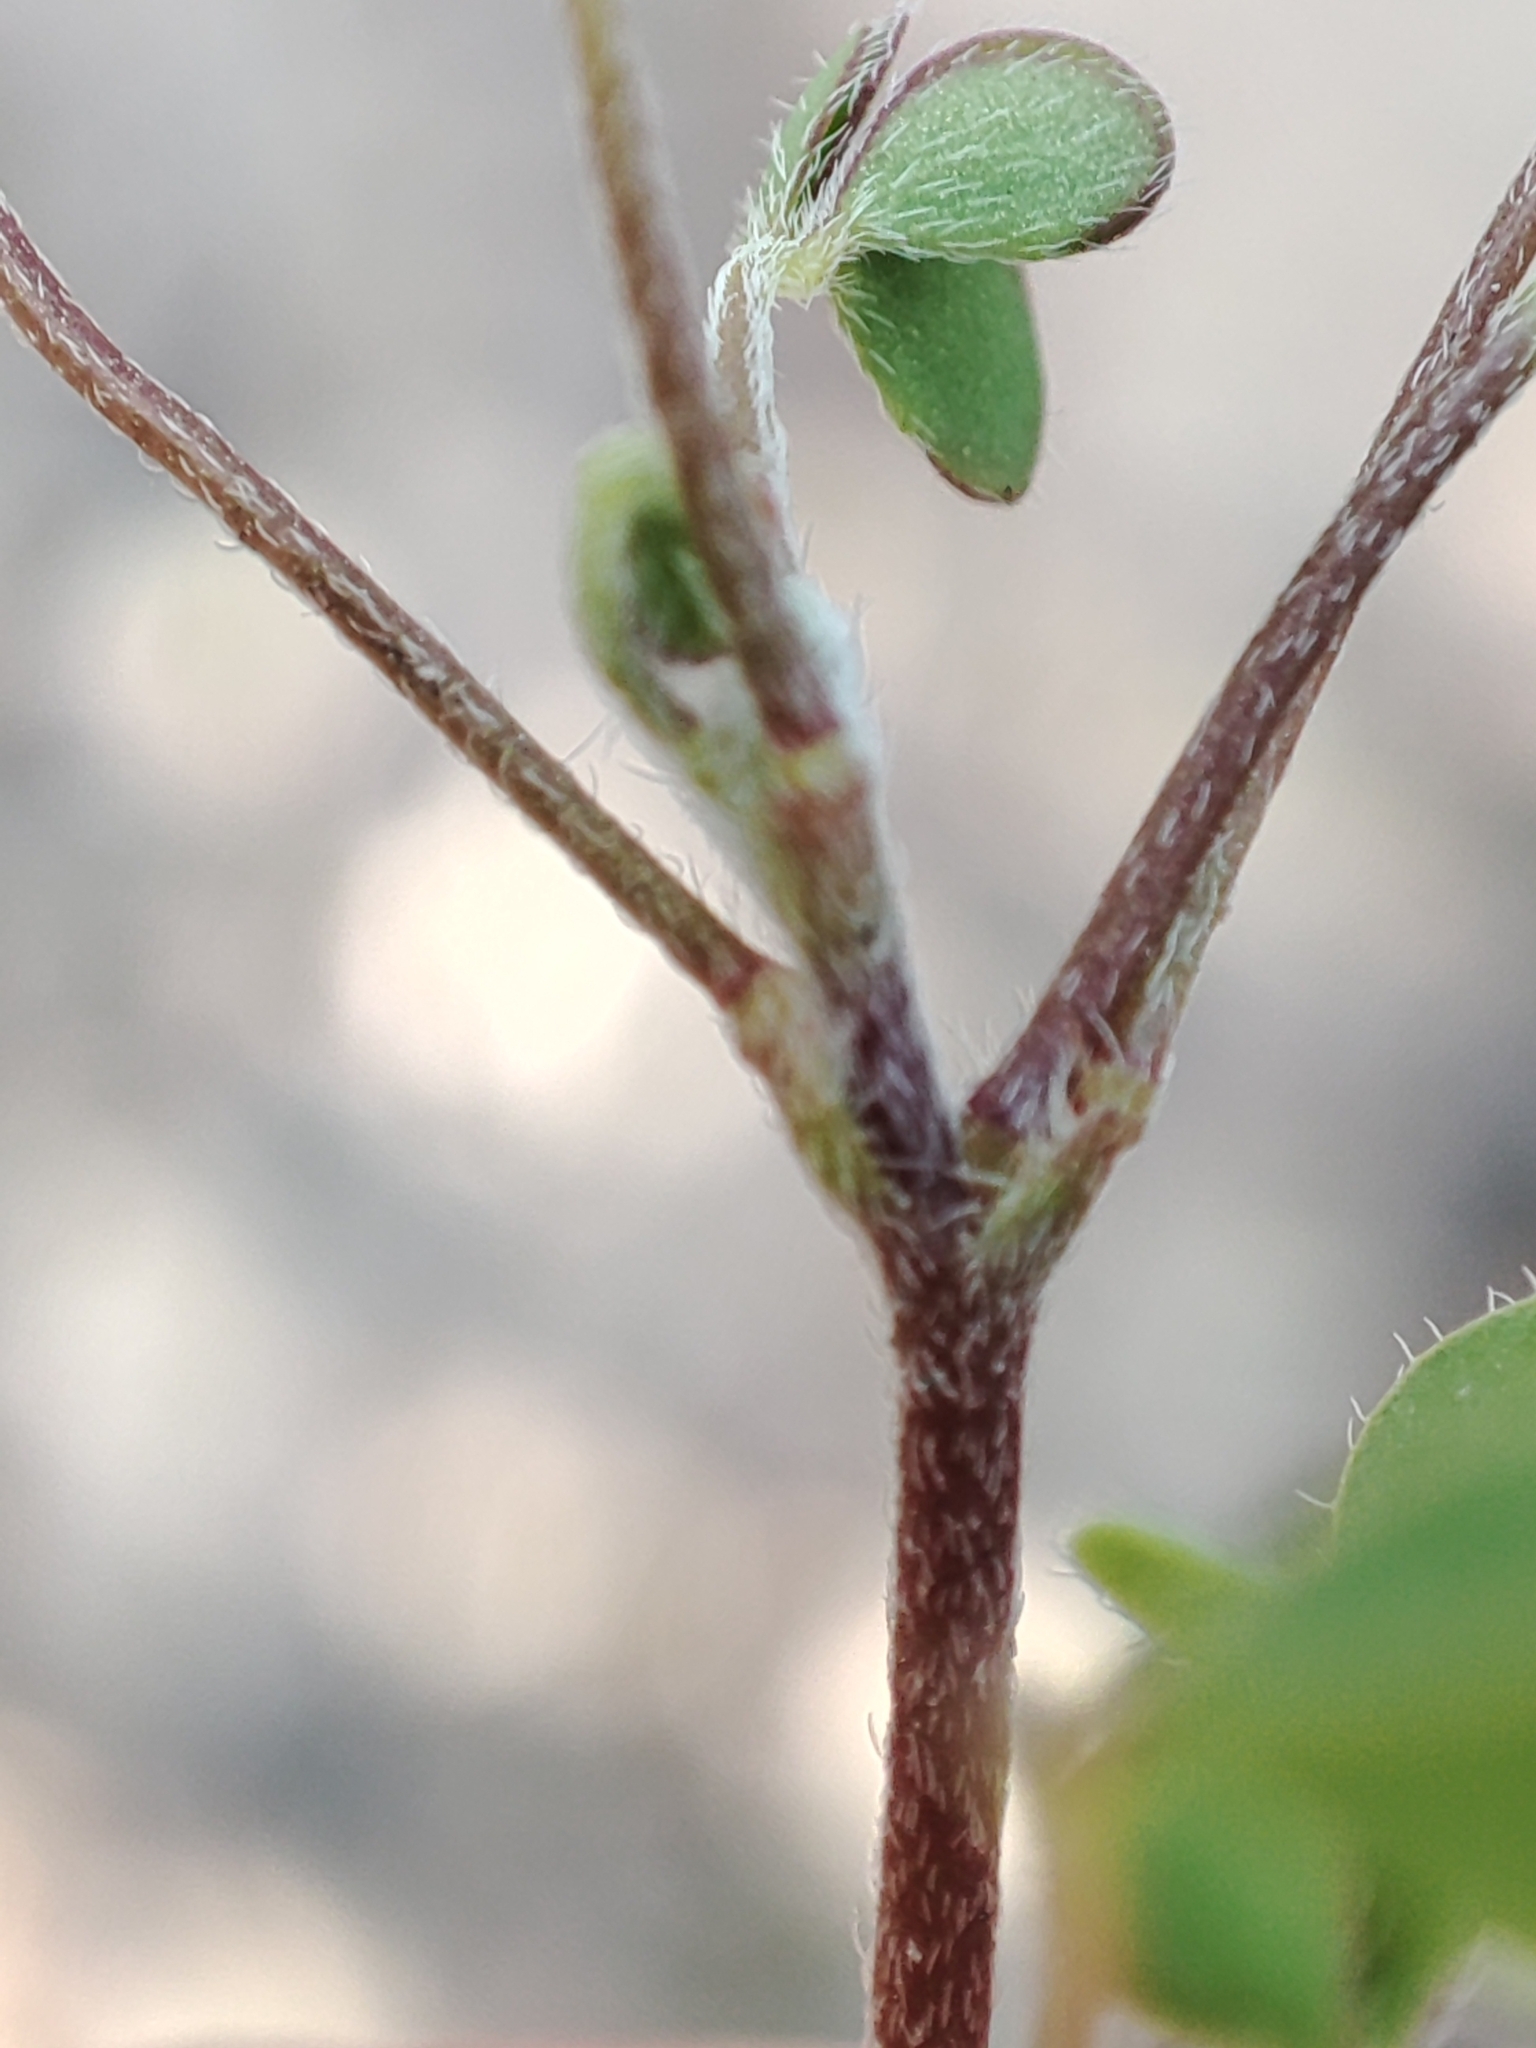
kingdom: Plantae
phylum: Tracheophyta
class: Magnoliopsida
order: Oxalidales
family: Oxalidaceae
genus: Oxalis
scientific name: Oxalis exilis
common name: Least yellow-sorrel
